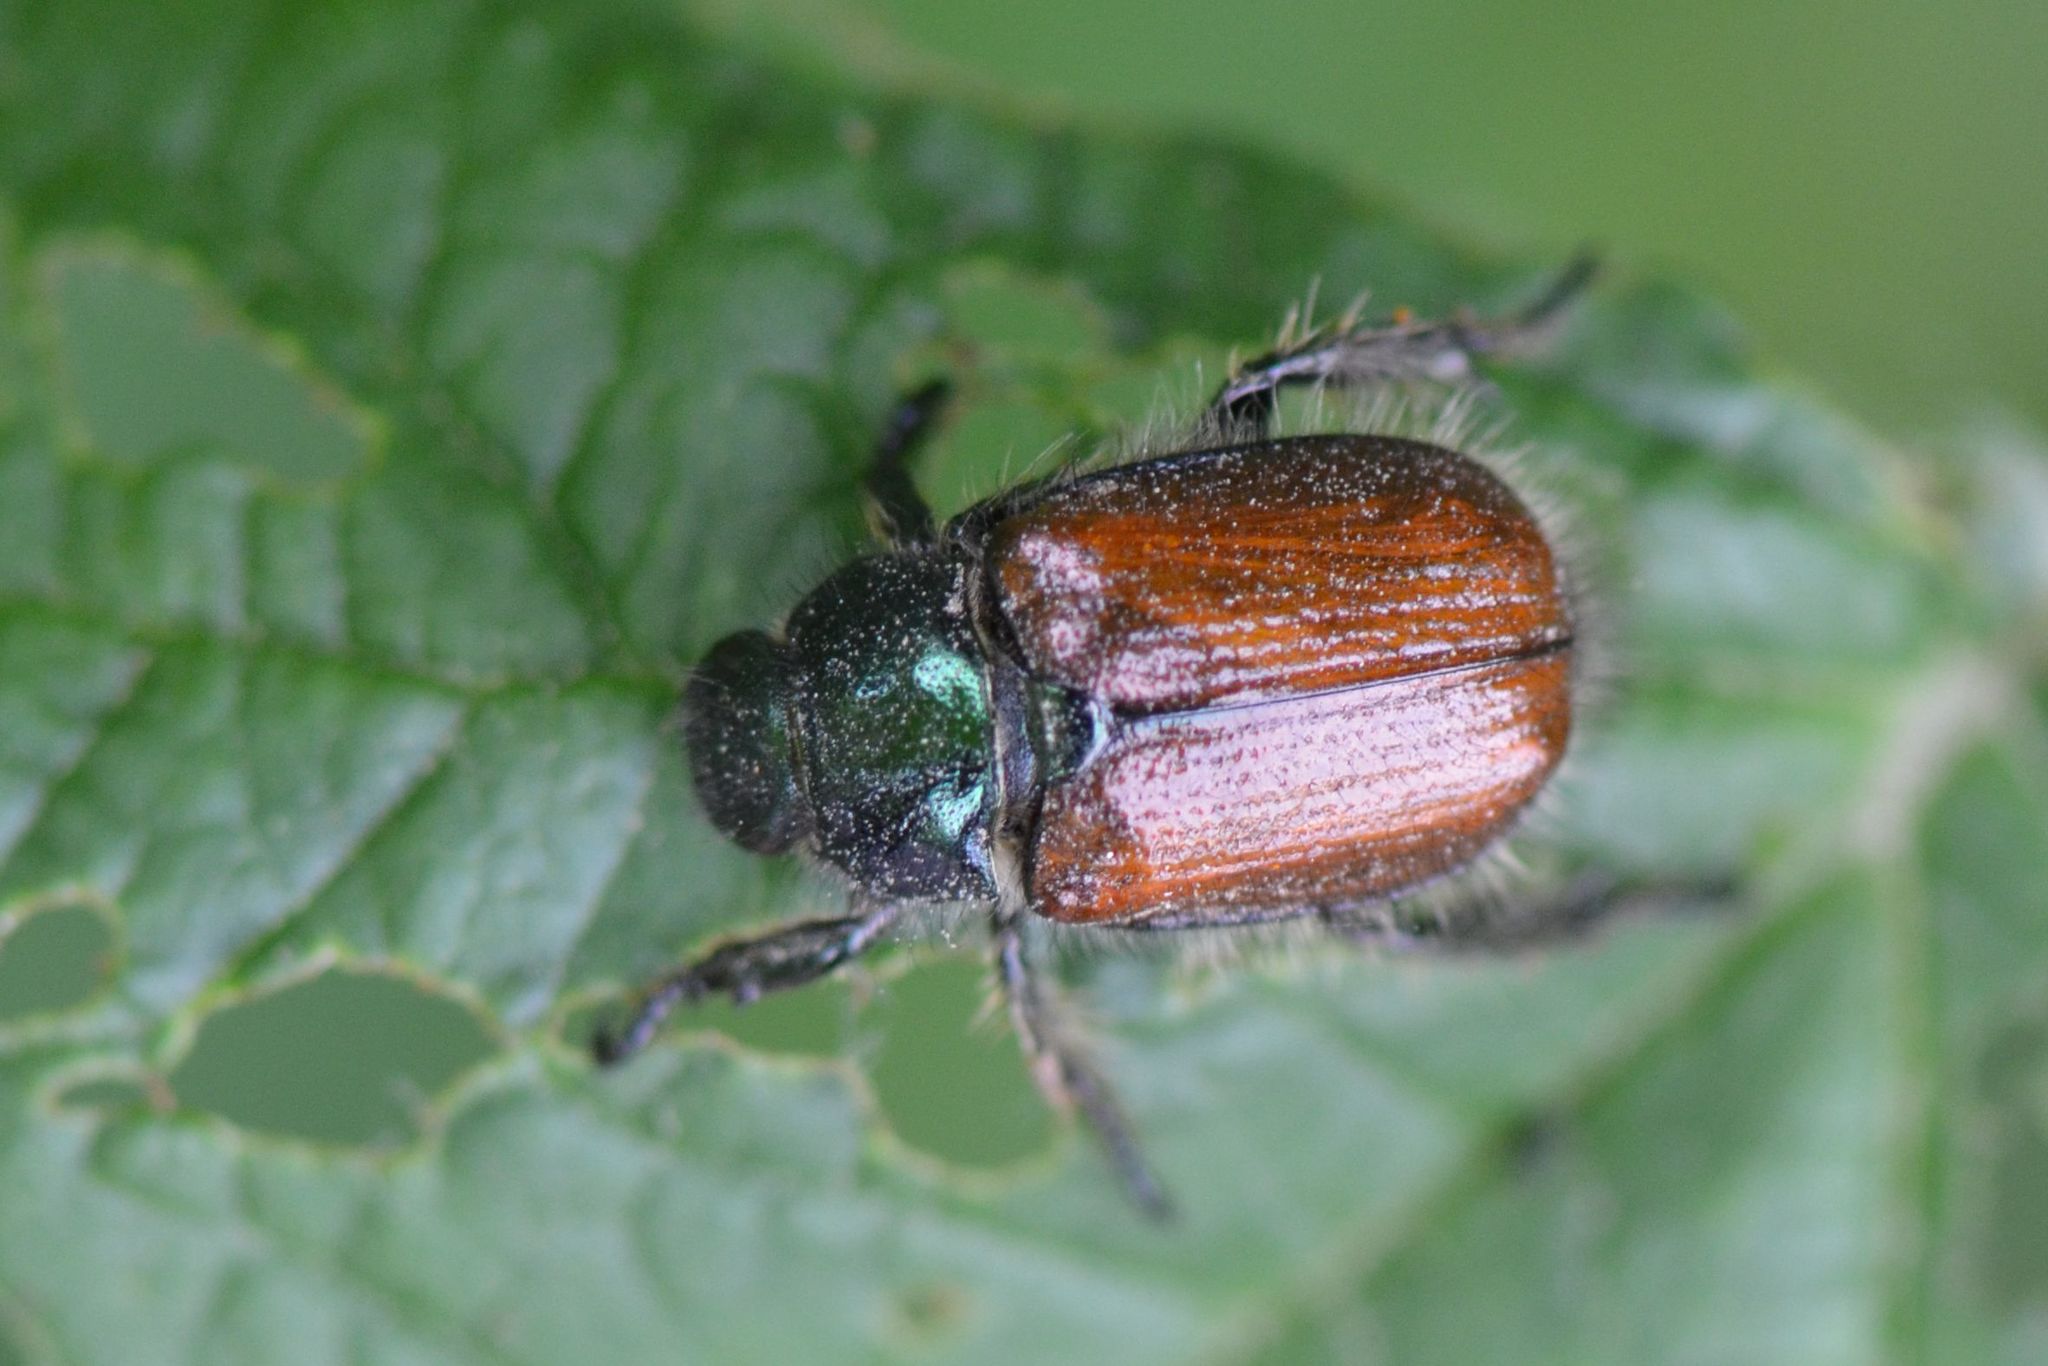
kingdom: Animalia
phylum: Arthropoda
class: Insecta
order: Coleoptera
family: Scarabaeidae
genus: Phyllopertha
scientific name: Phyllopertha horticola
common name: Garden chafer
